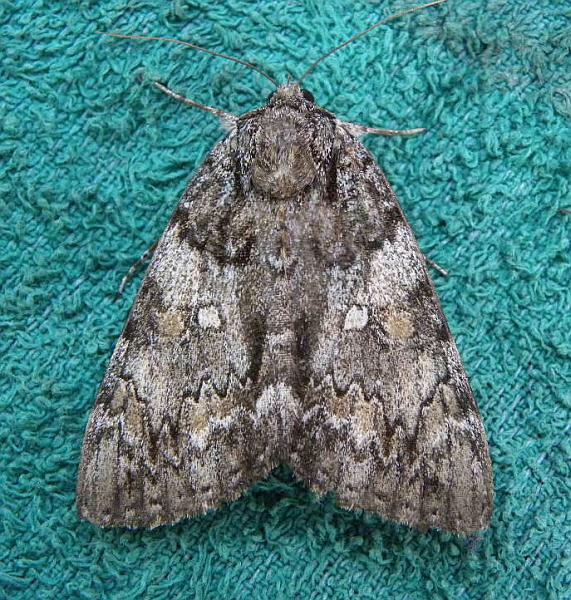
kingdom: Animalia
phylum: Arthropoda
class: Insecta
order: Lepidoptera
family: Erebidae
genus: Catocala
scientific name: Catocala palaeogama
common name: Oldwife underwing
